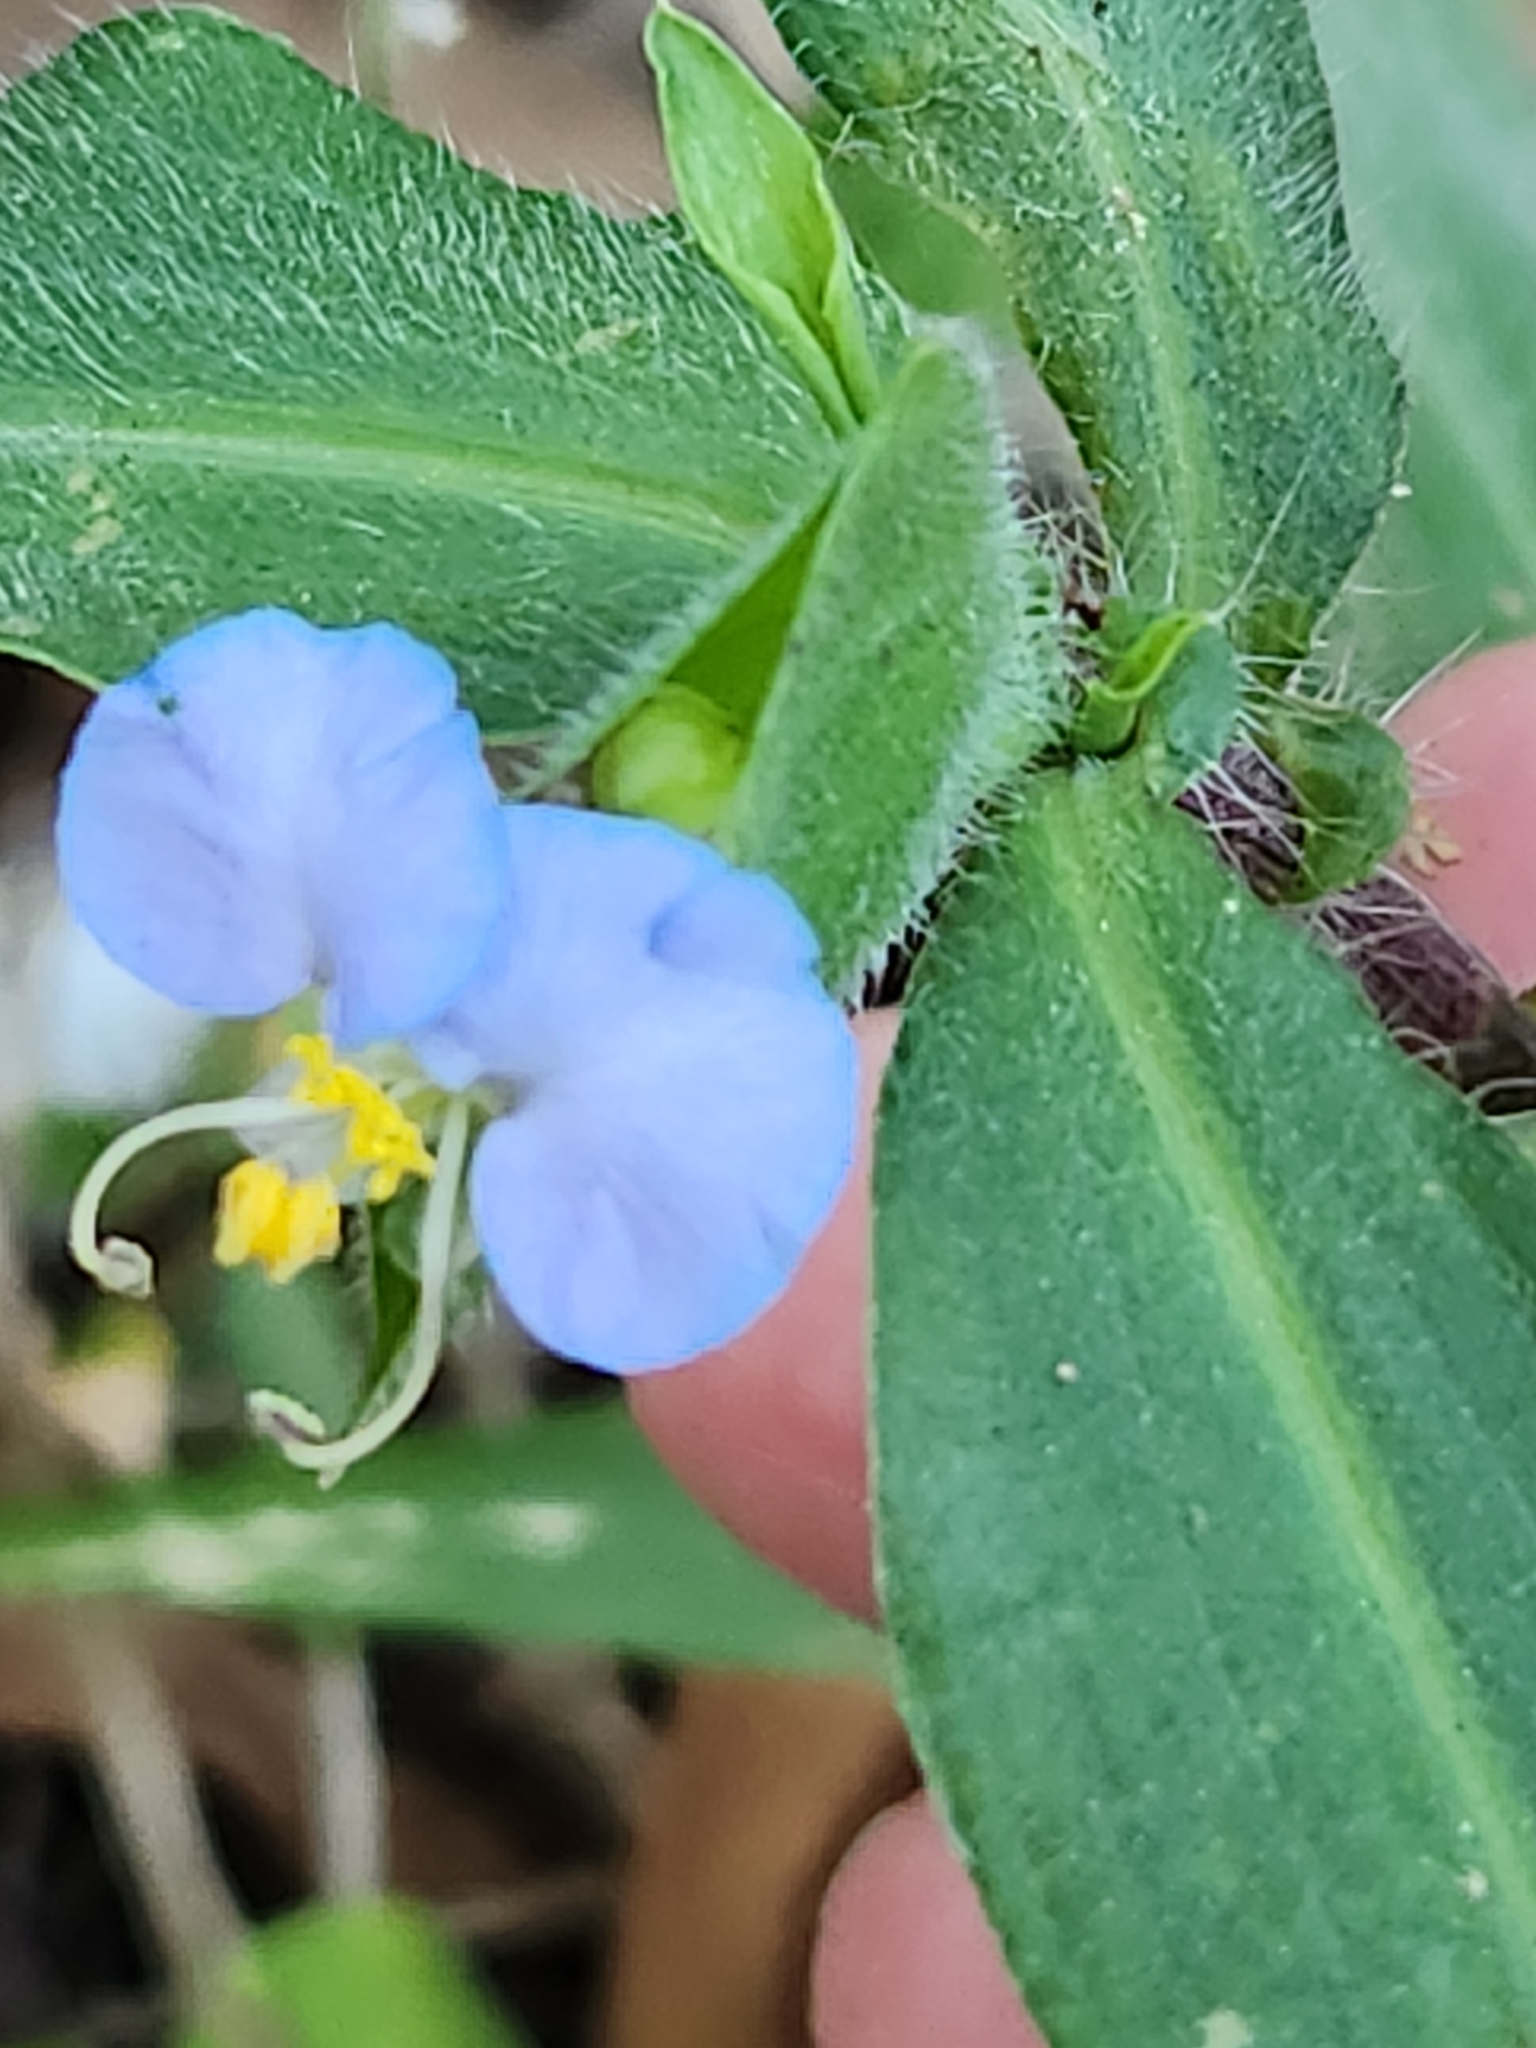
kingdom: Plantae
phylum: Tracheophyta
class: Liliopsida
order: Commelinales
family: Commelinaceae
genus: Commelina
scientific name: Commelina erecta
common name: Blousel blommetjie
